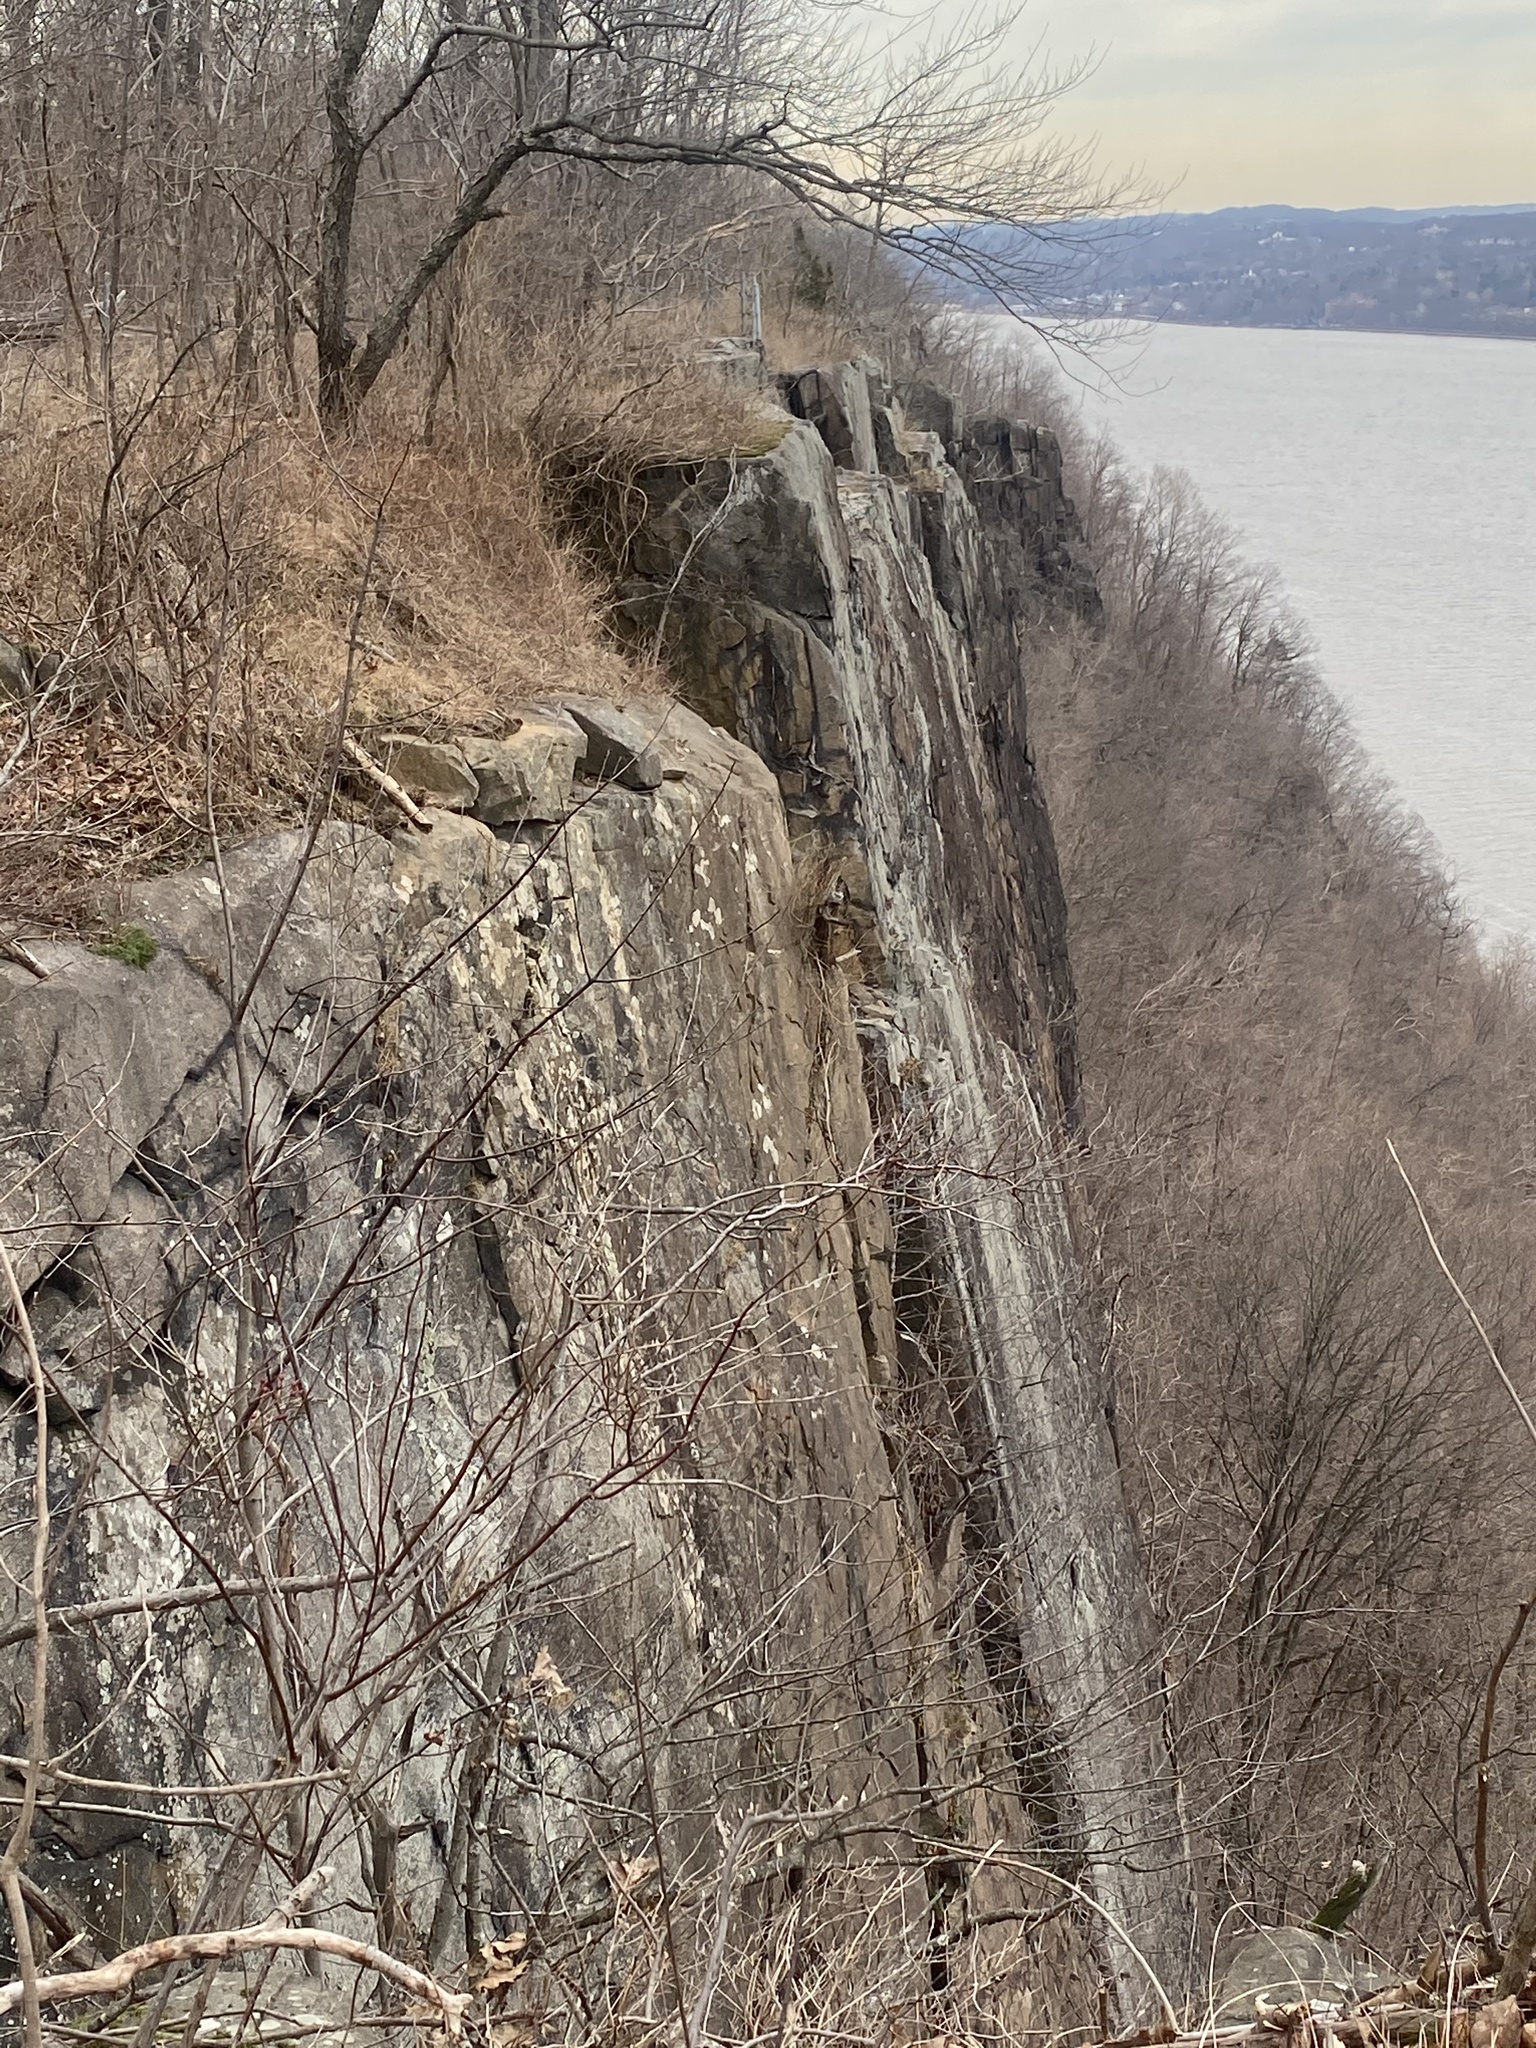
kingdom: Plantae
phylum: Tracheophyta
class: Magnoliopsida
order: Asterales
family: Asteraceae
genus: Artemisia
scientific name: Artemisia vulgaris
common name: Mugwort
